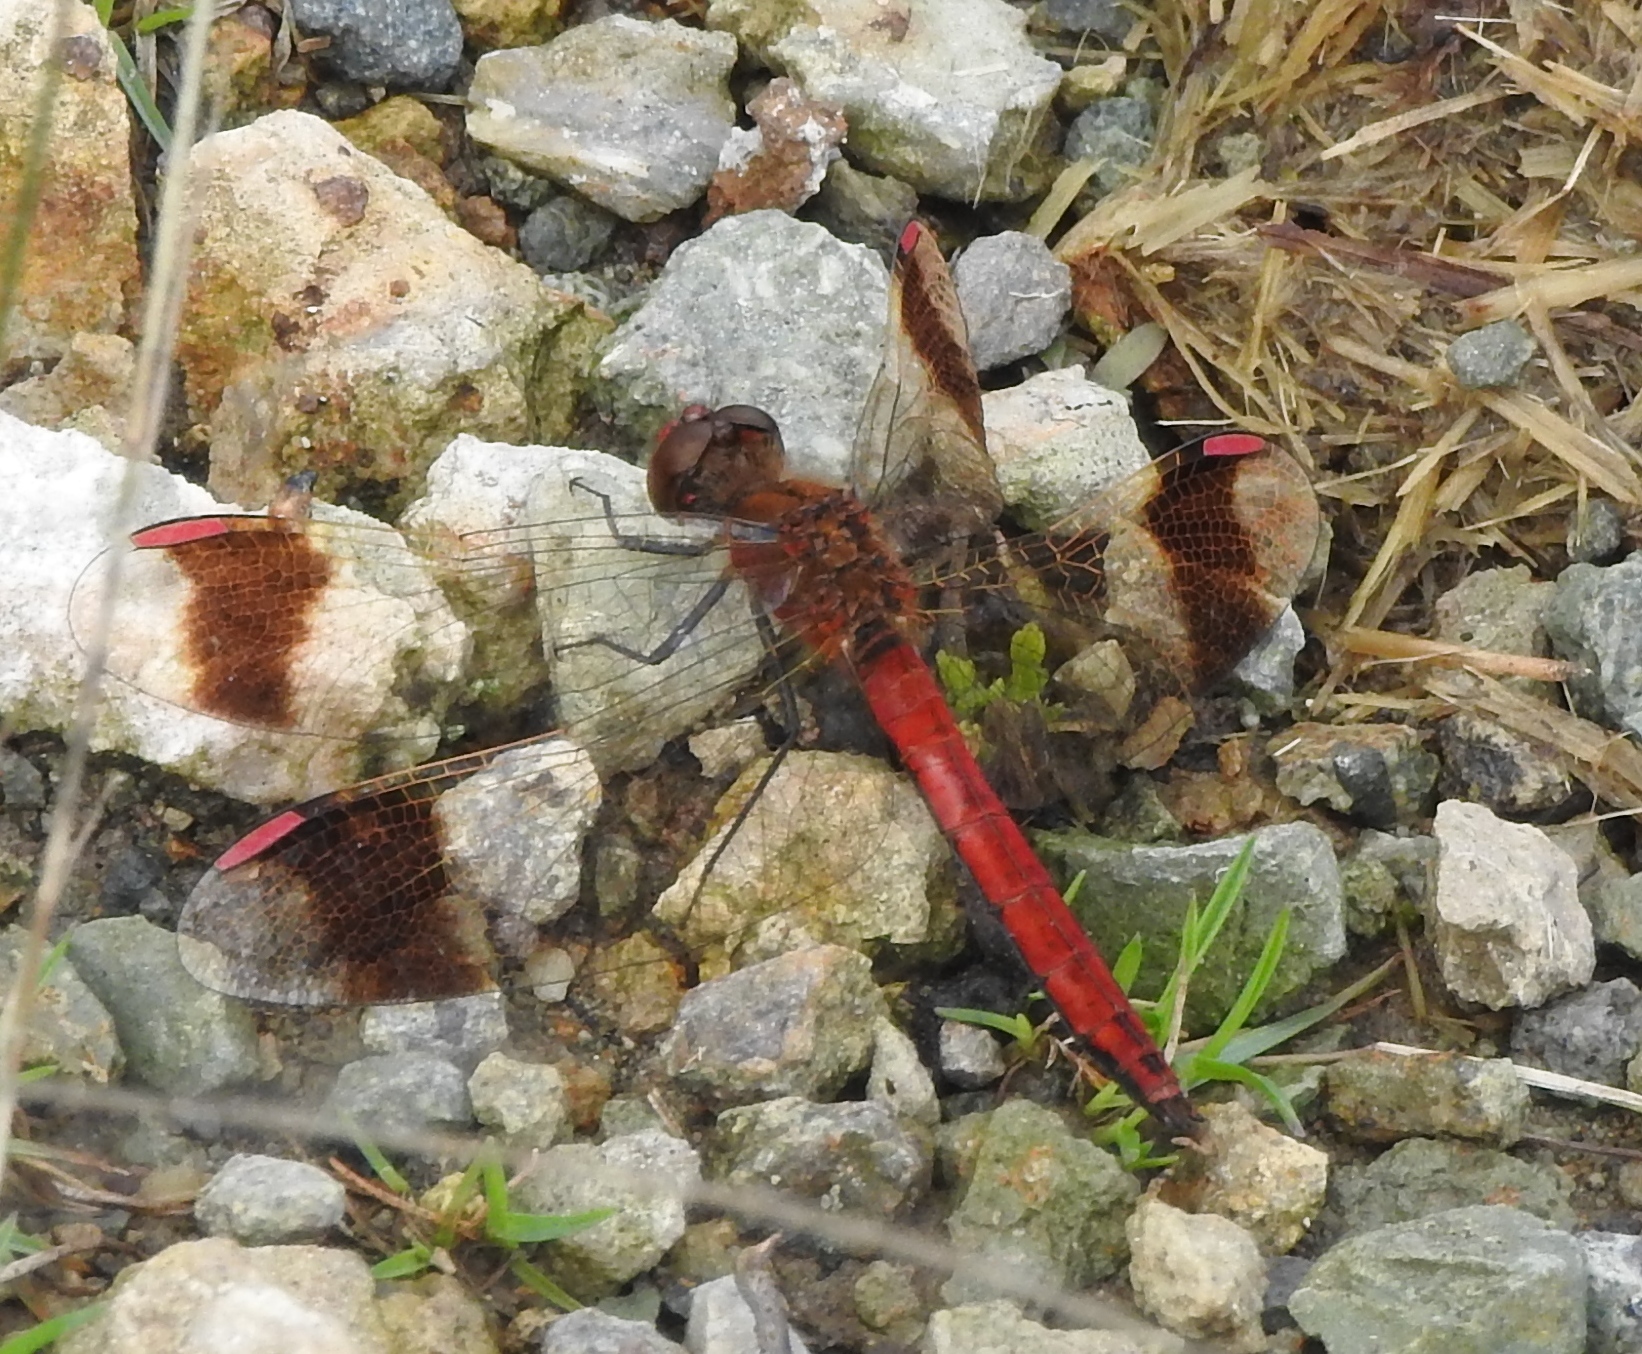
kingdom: Animalia
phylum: Arthropoda
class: Insecta
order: Odonata
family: Libellulidae
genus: Sympetrum
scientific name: Sympetrum pedemontanum
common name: Banded darter
